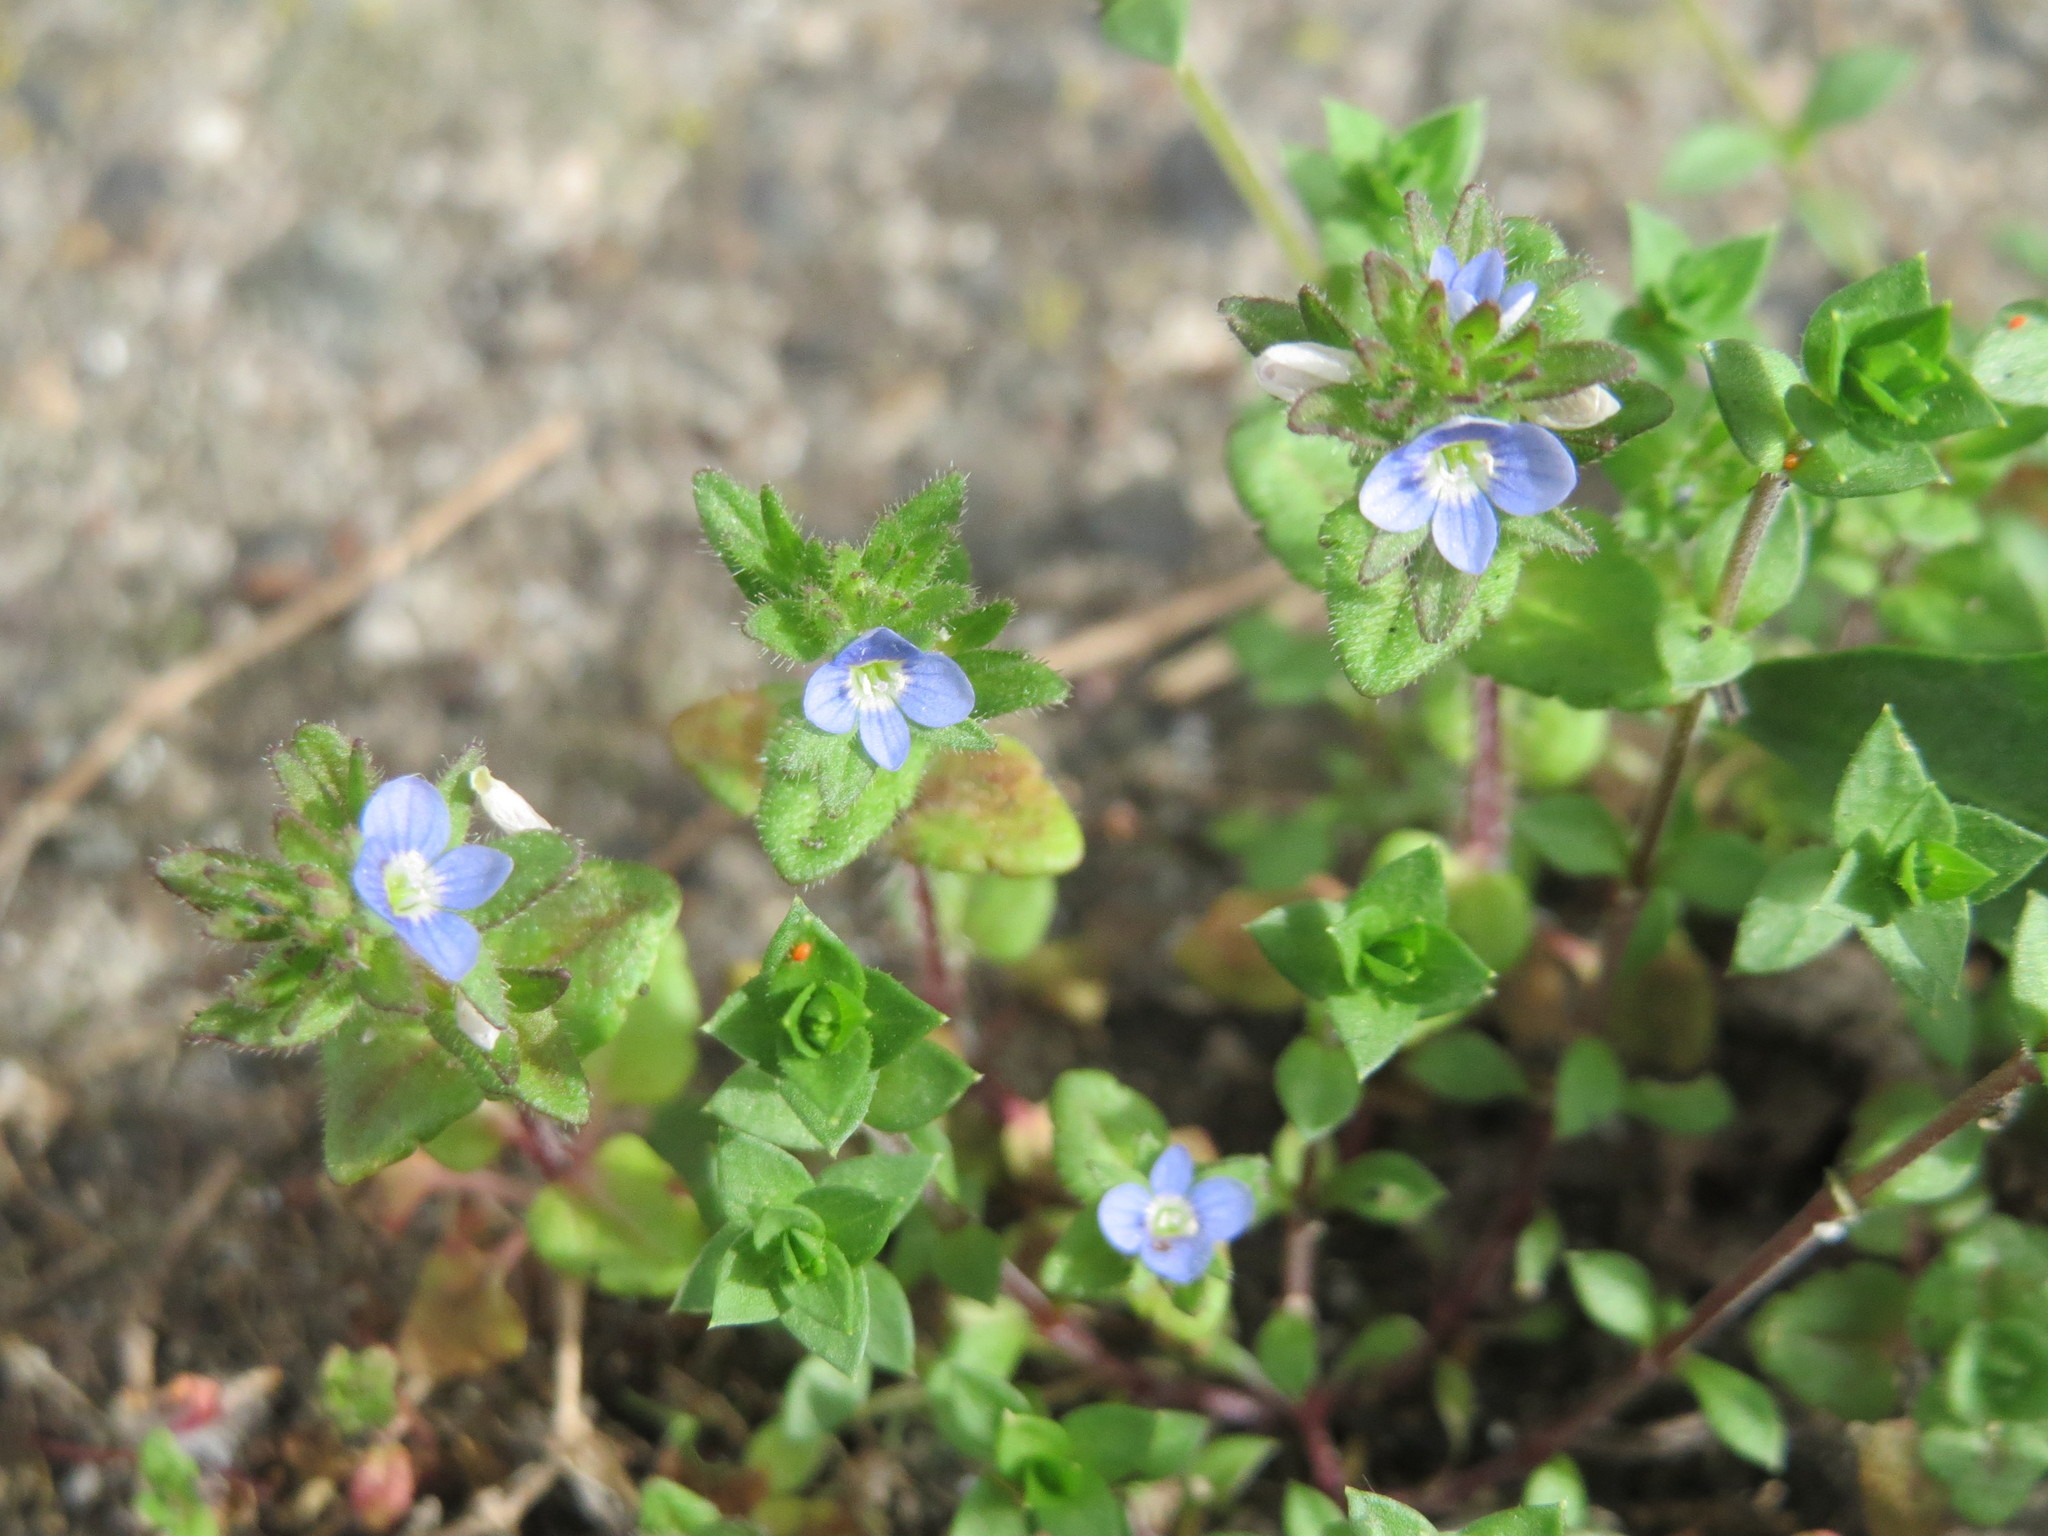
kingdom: Plantae
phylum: Tracheophyta
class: Magnoliopsida
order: Lamiales
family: Plantaginaceae
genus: Veronica
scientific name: Veronica arvensis
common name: Corn speedwell
